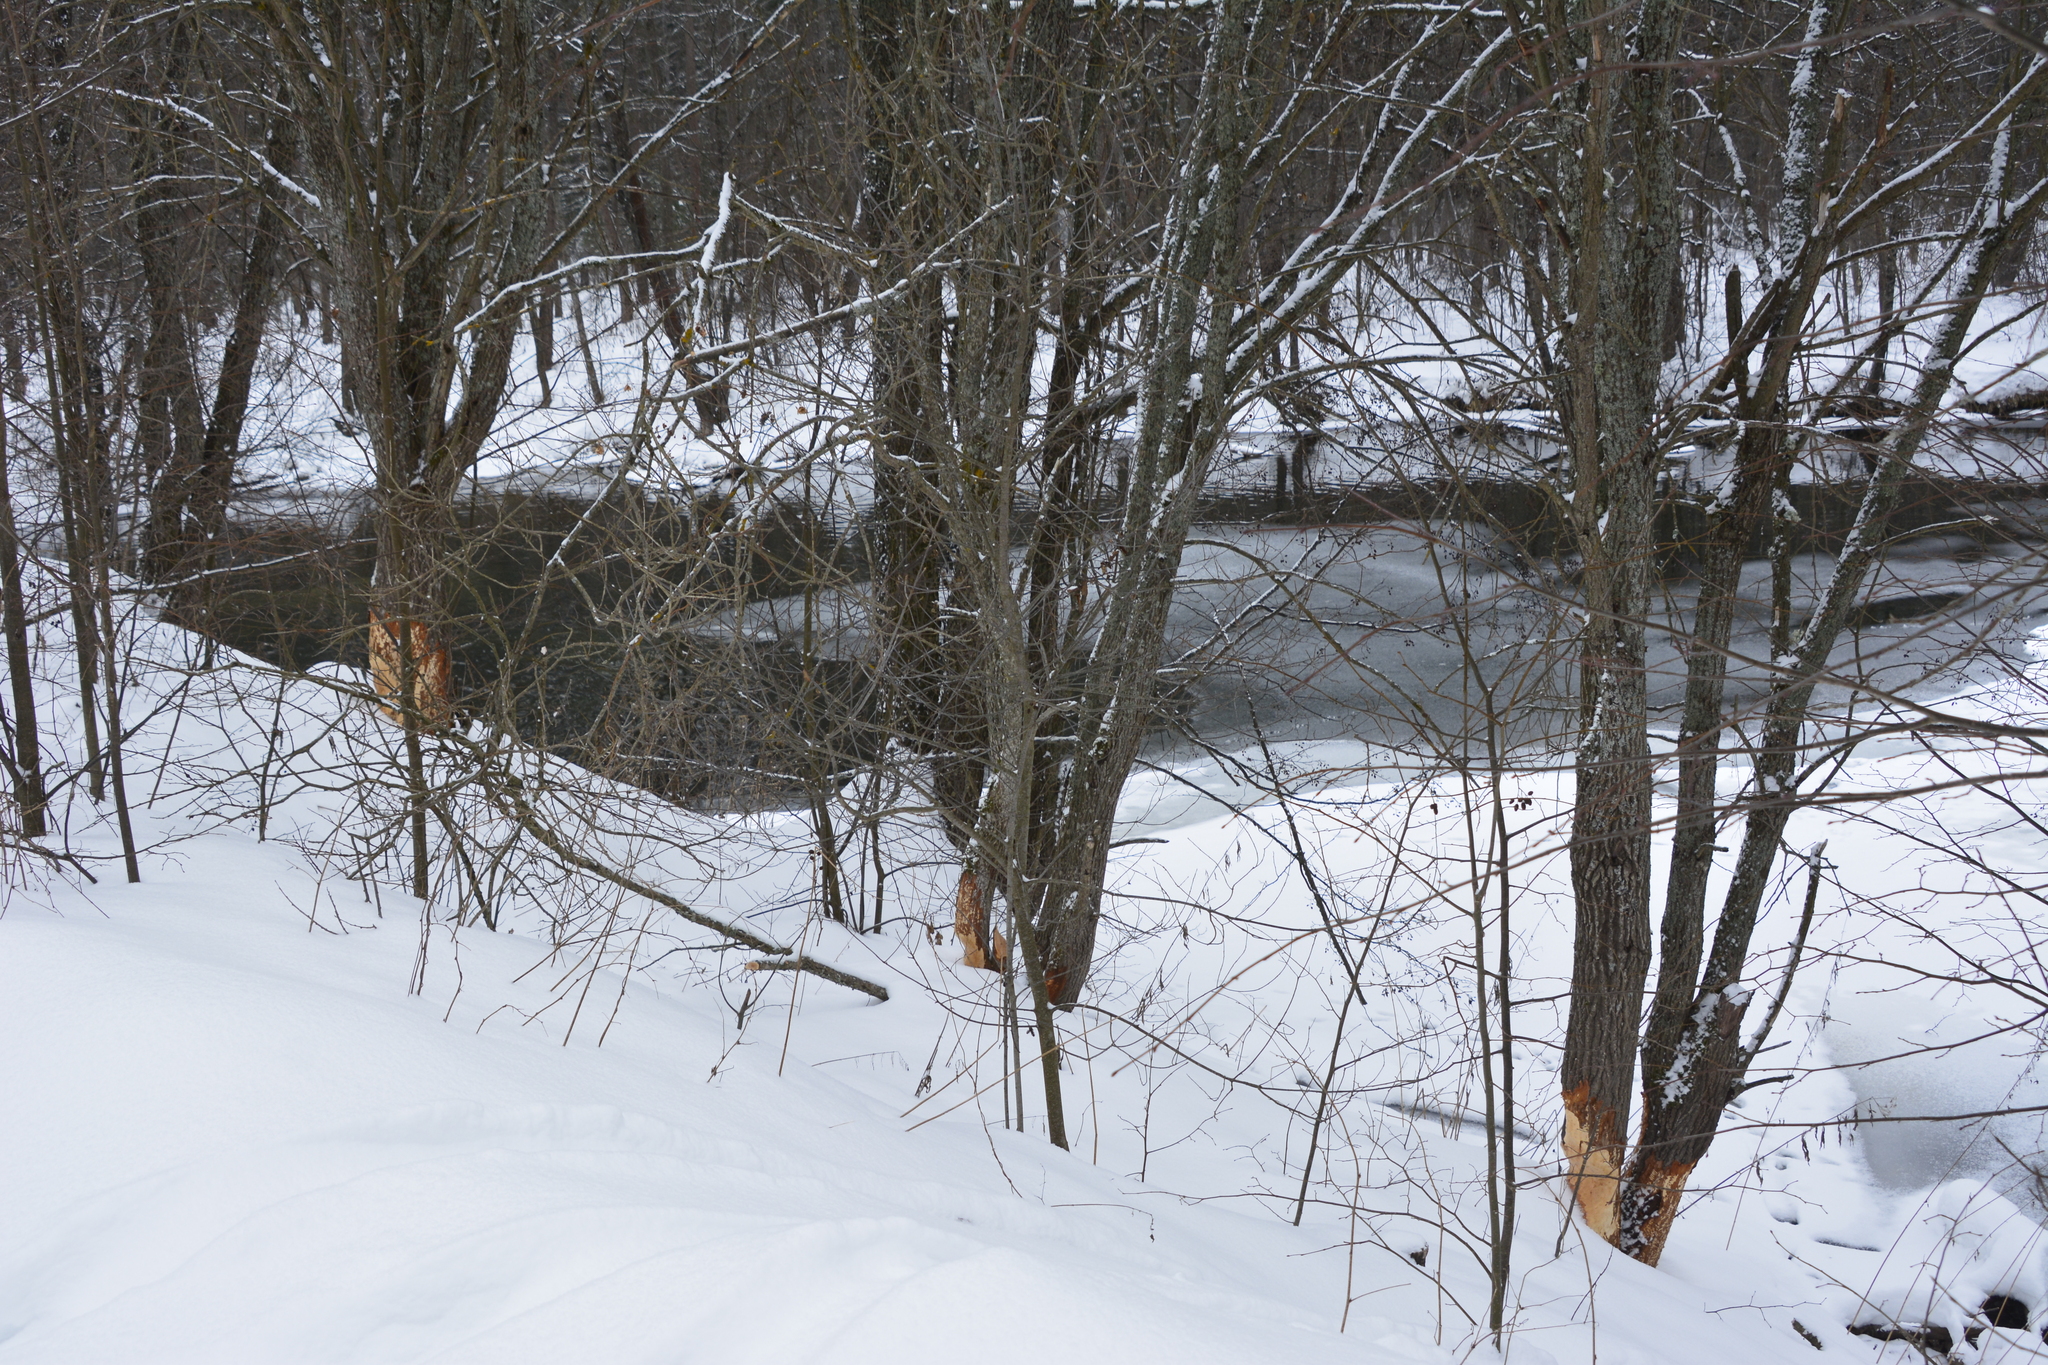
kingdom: Animalia
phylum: Chordata
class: Mammalia
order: Rodentia
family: Castoridae
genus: Castor
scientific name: Castor fiber
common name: Eurasian beaver
